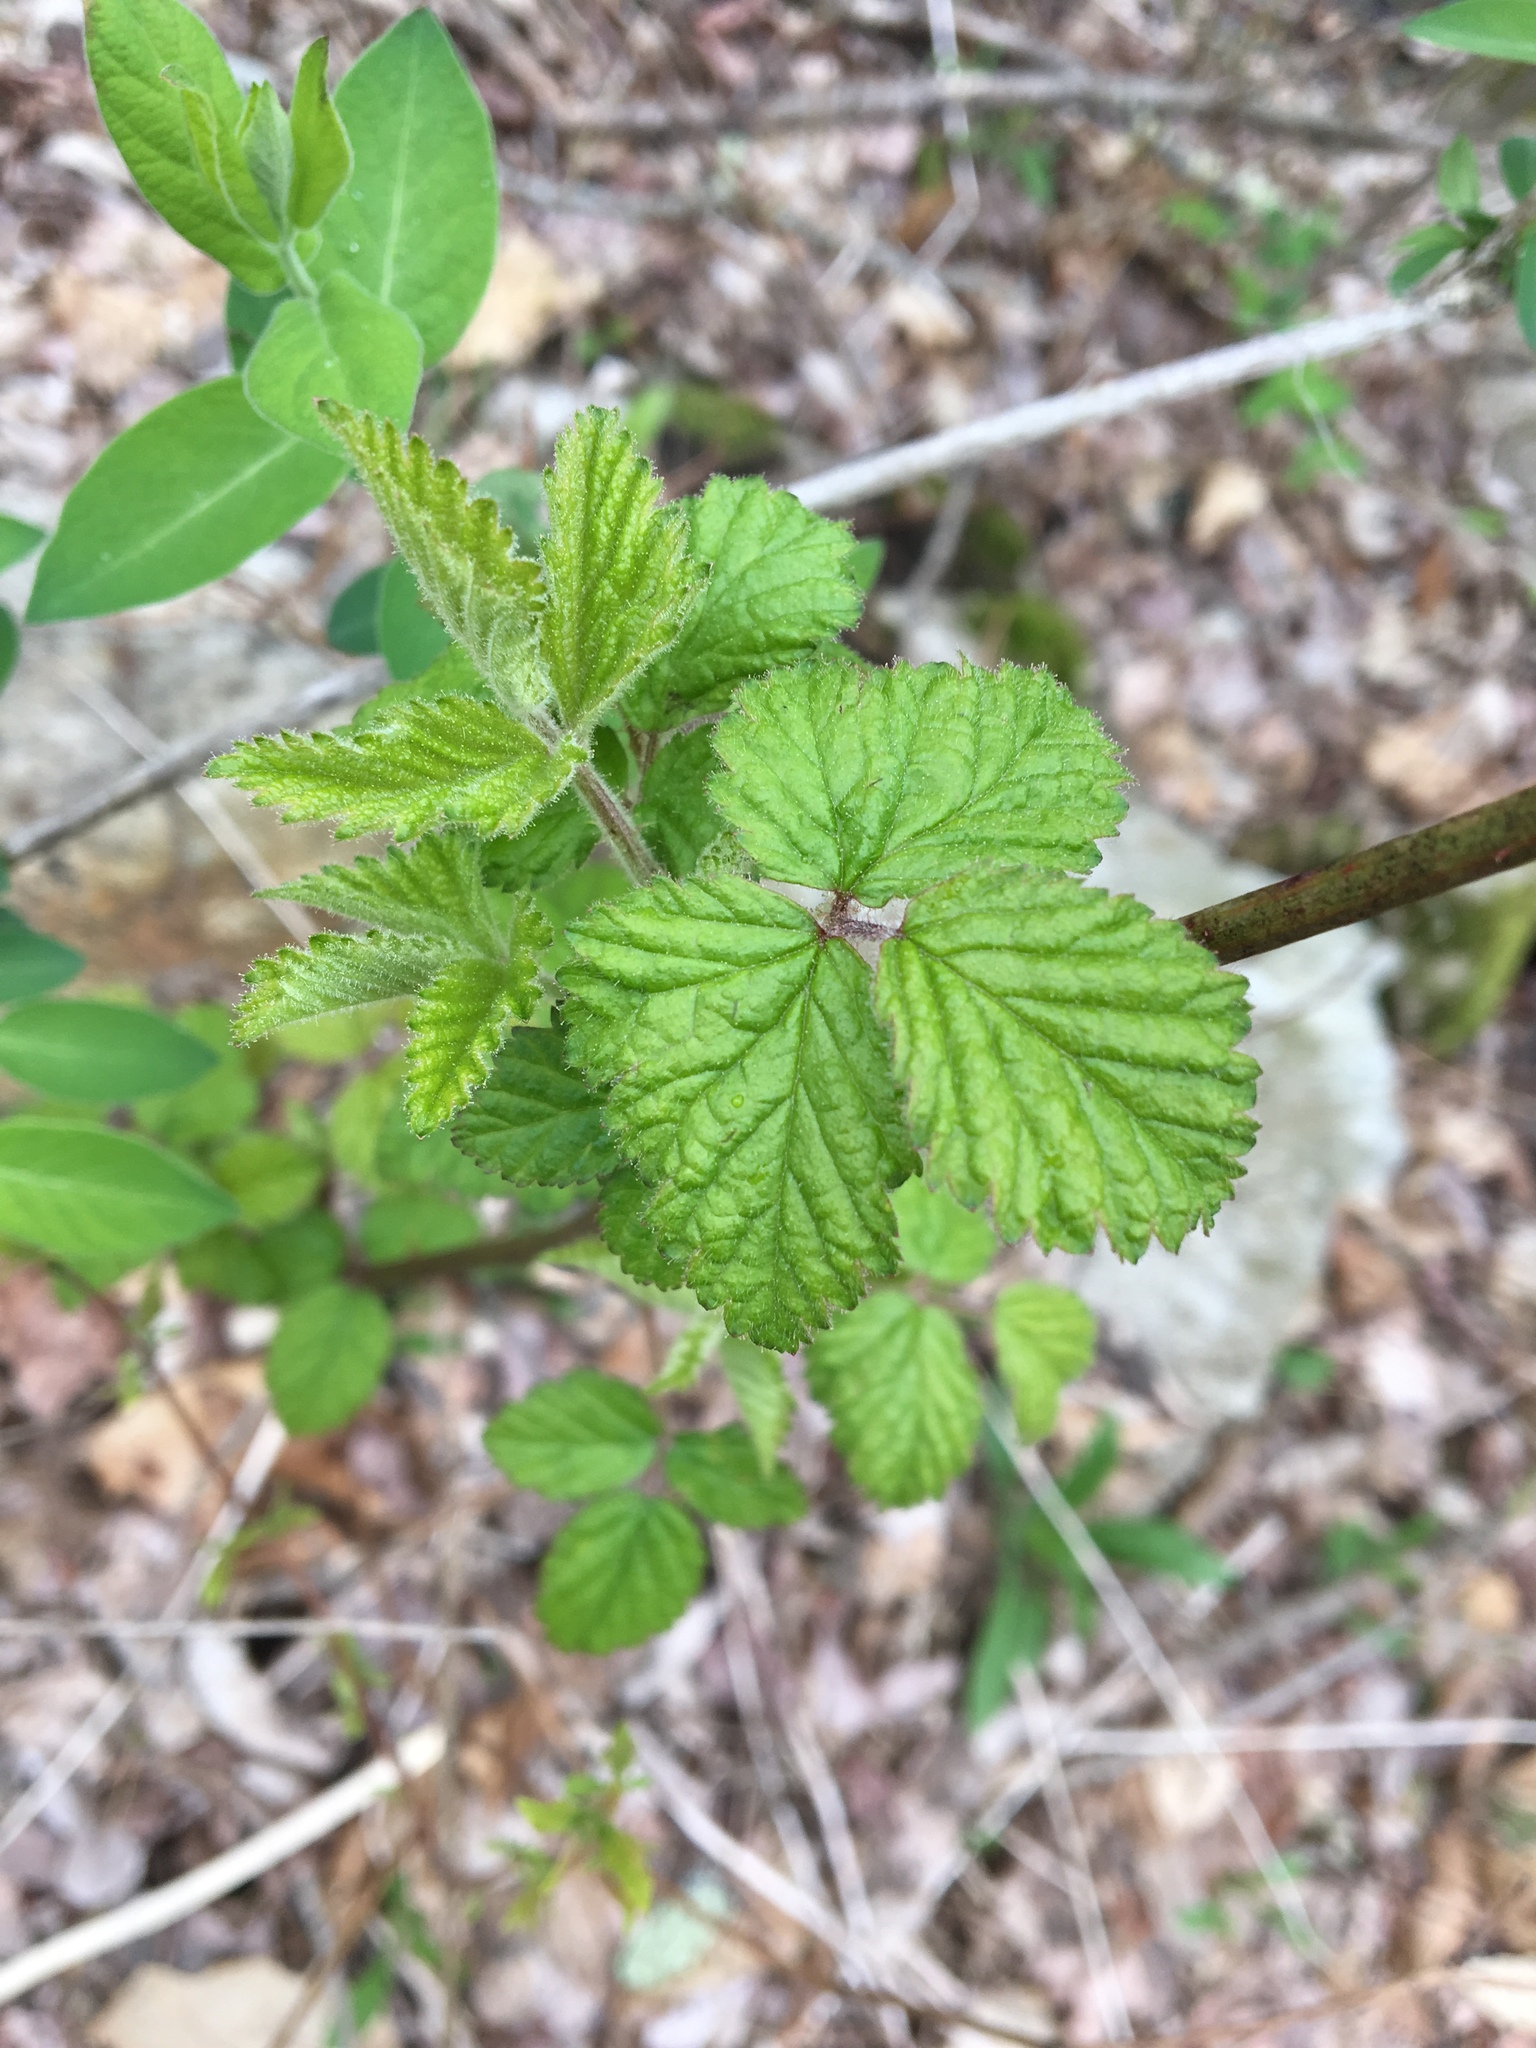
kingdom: Plantae
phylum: Tracheophyta
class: Magnoliopsida
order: Rosales
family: Rosaceae
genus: Rubus
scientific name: Rubus
